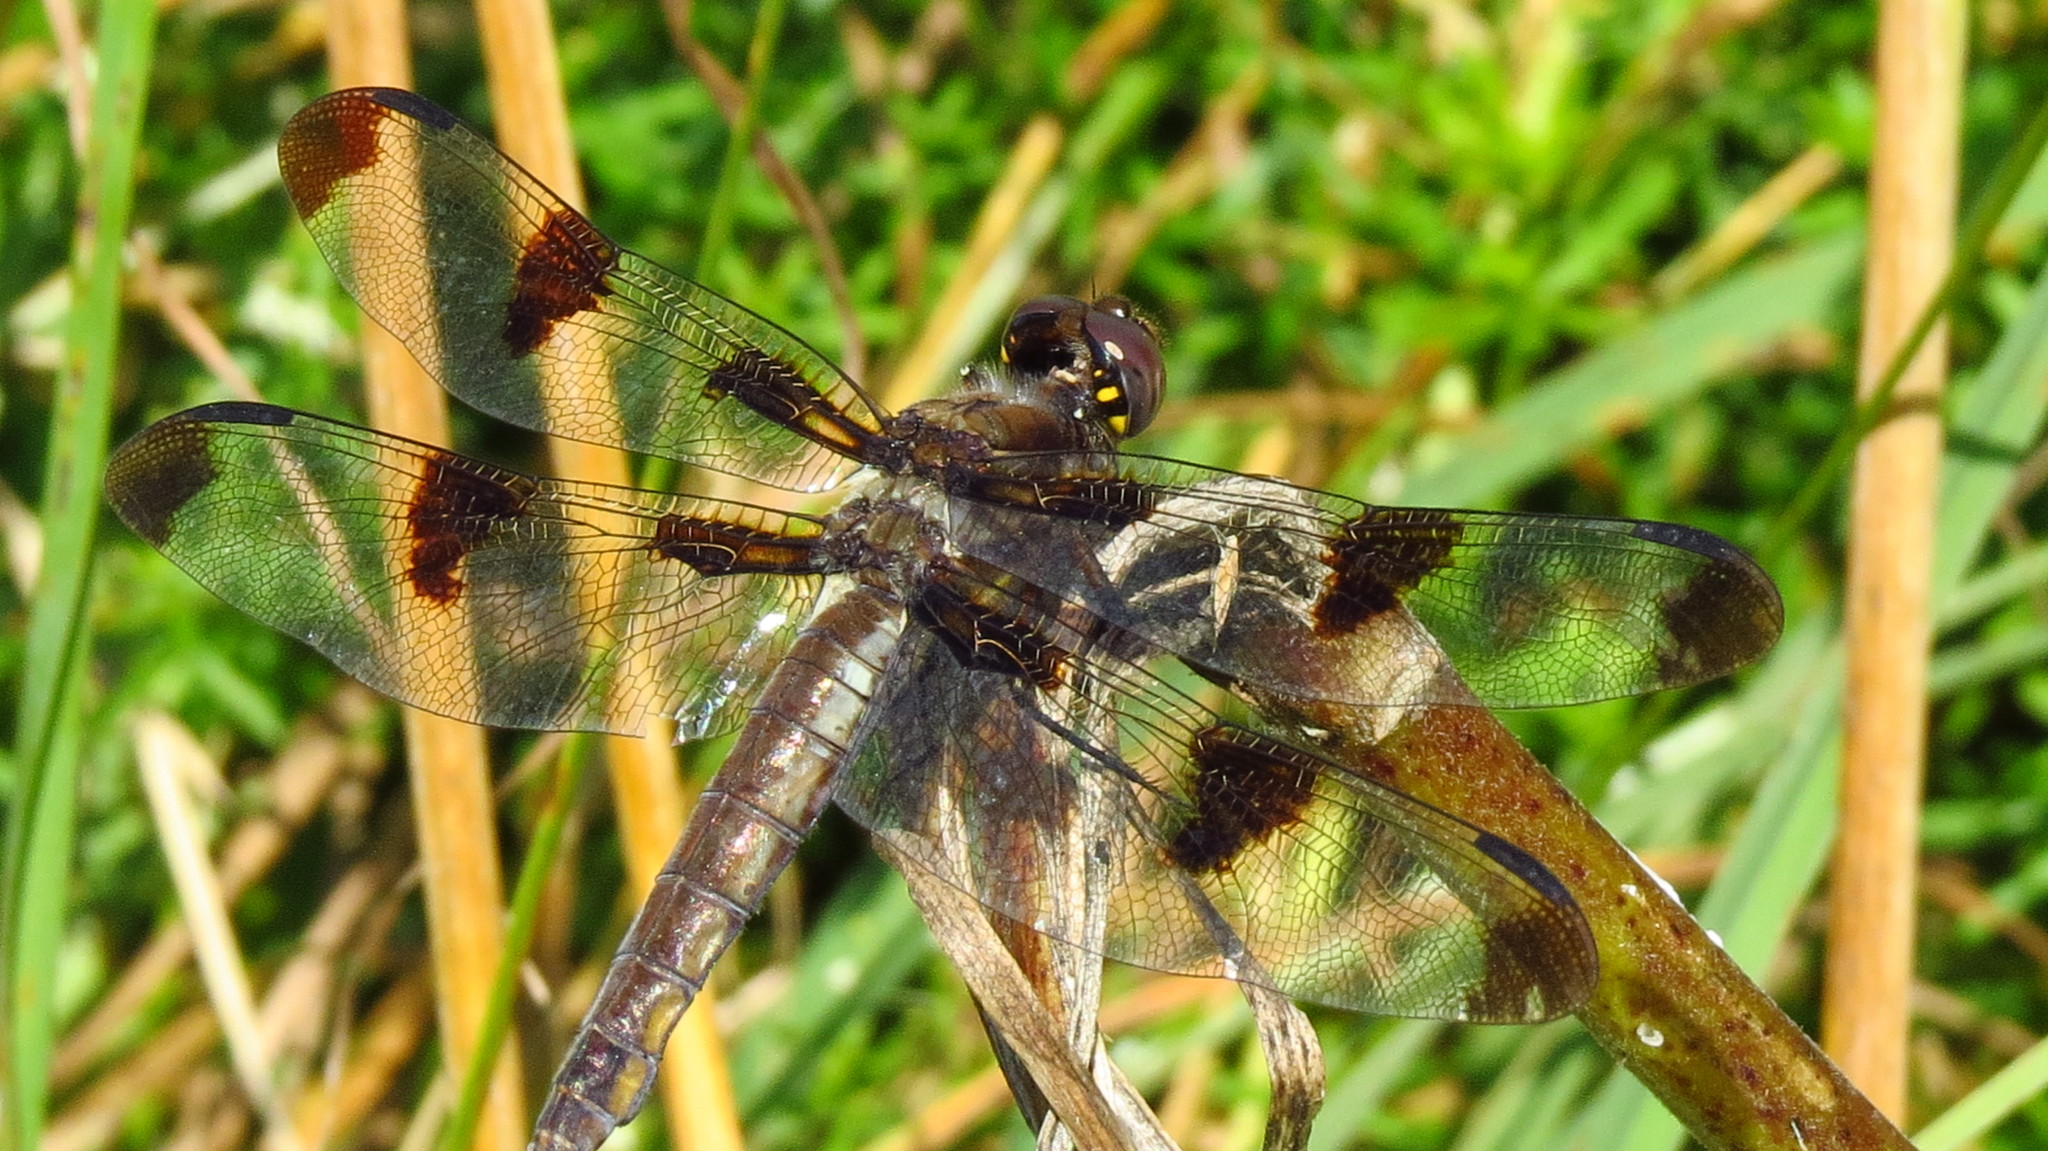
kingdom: Animalia
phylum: Arthropoda
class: Insecta
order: Odonata
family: Libellulidae
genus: Libellula
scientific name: Libellula pulchella
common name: Twelve-spotted skimmer
